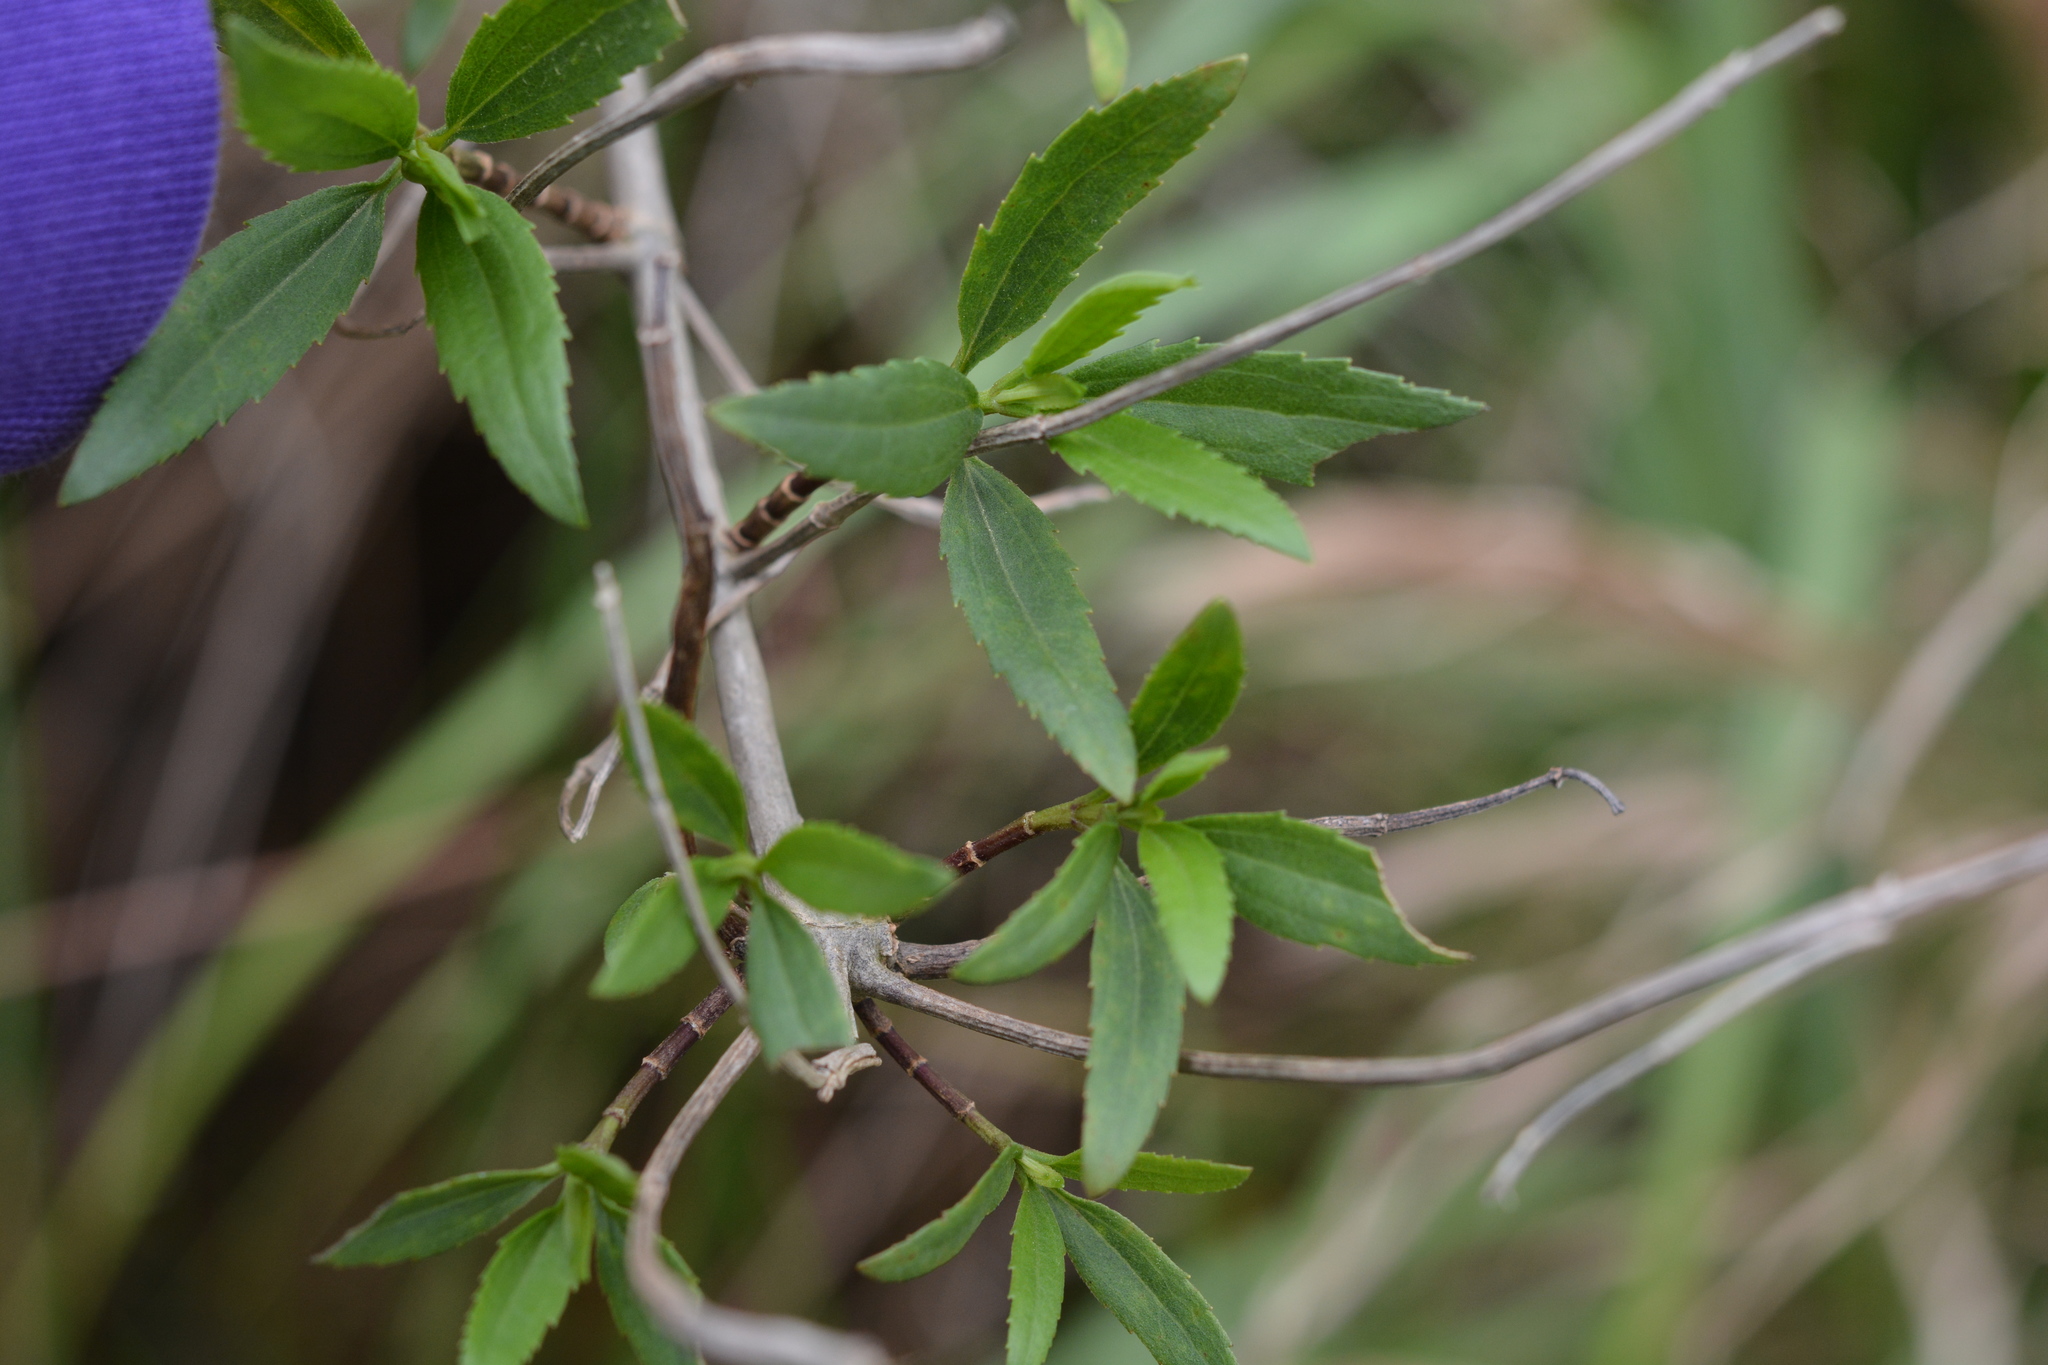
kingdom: Plantae
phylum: Tracheophyta
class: Magnoliopsida
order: Asterales
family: Asteraceae
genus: Iva
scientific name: Iva frutescens
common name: Big-leaved marsh-elder
